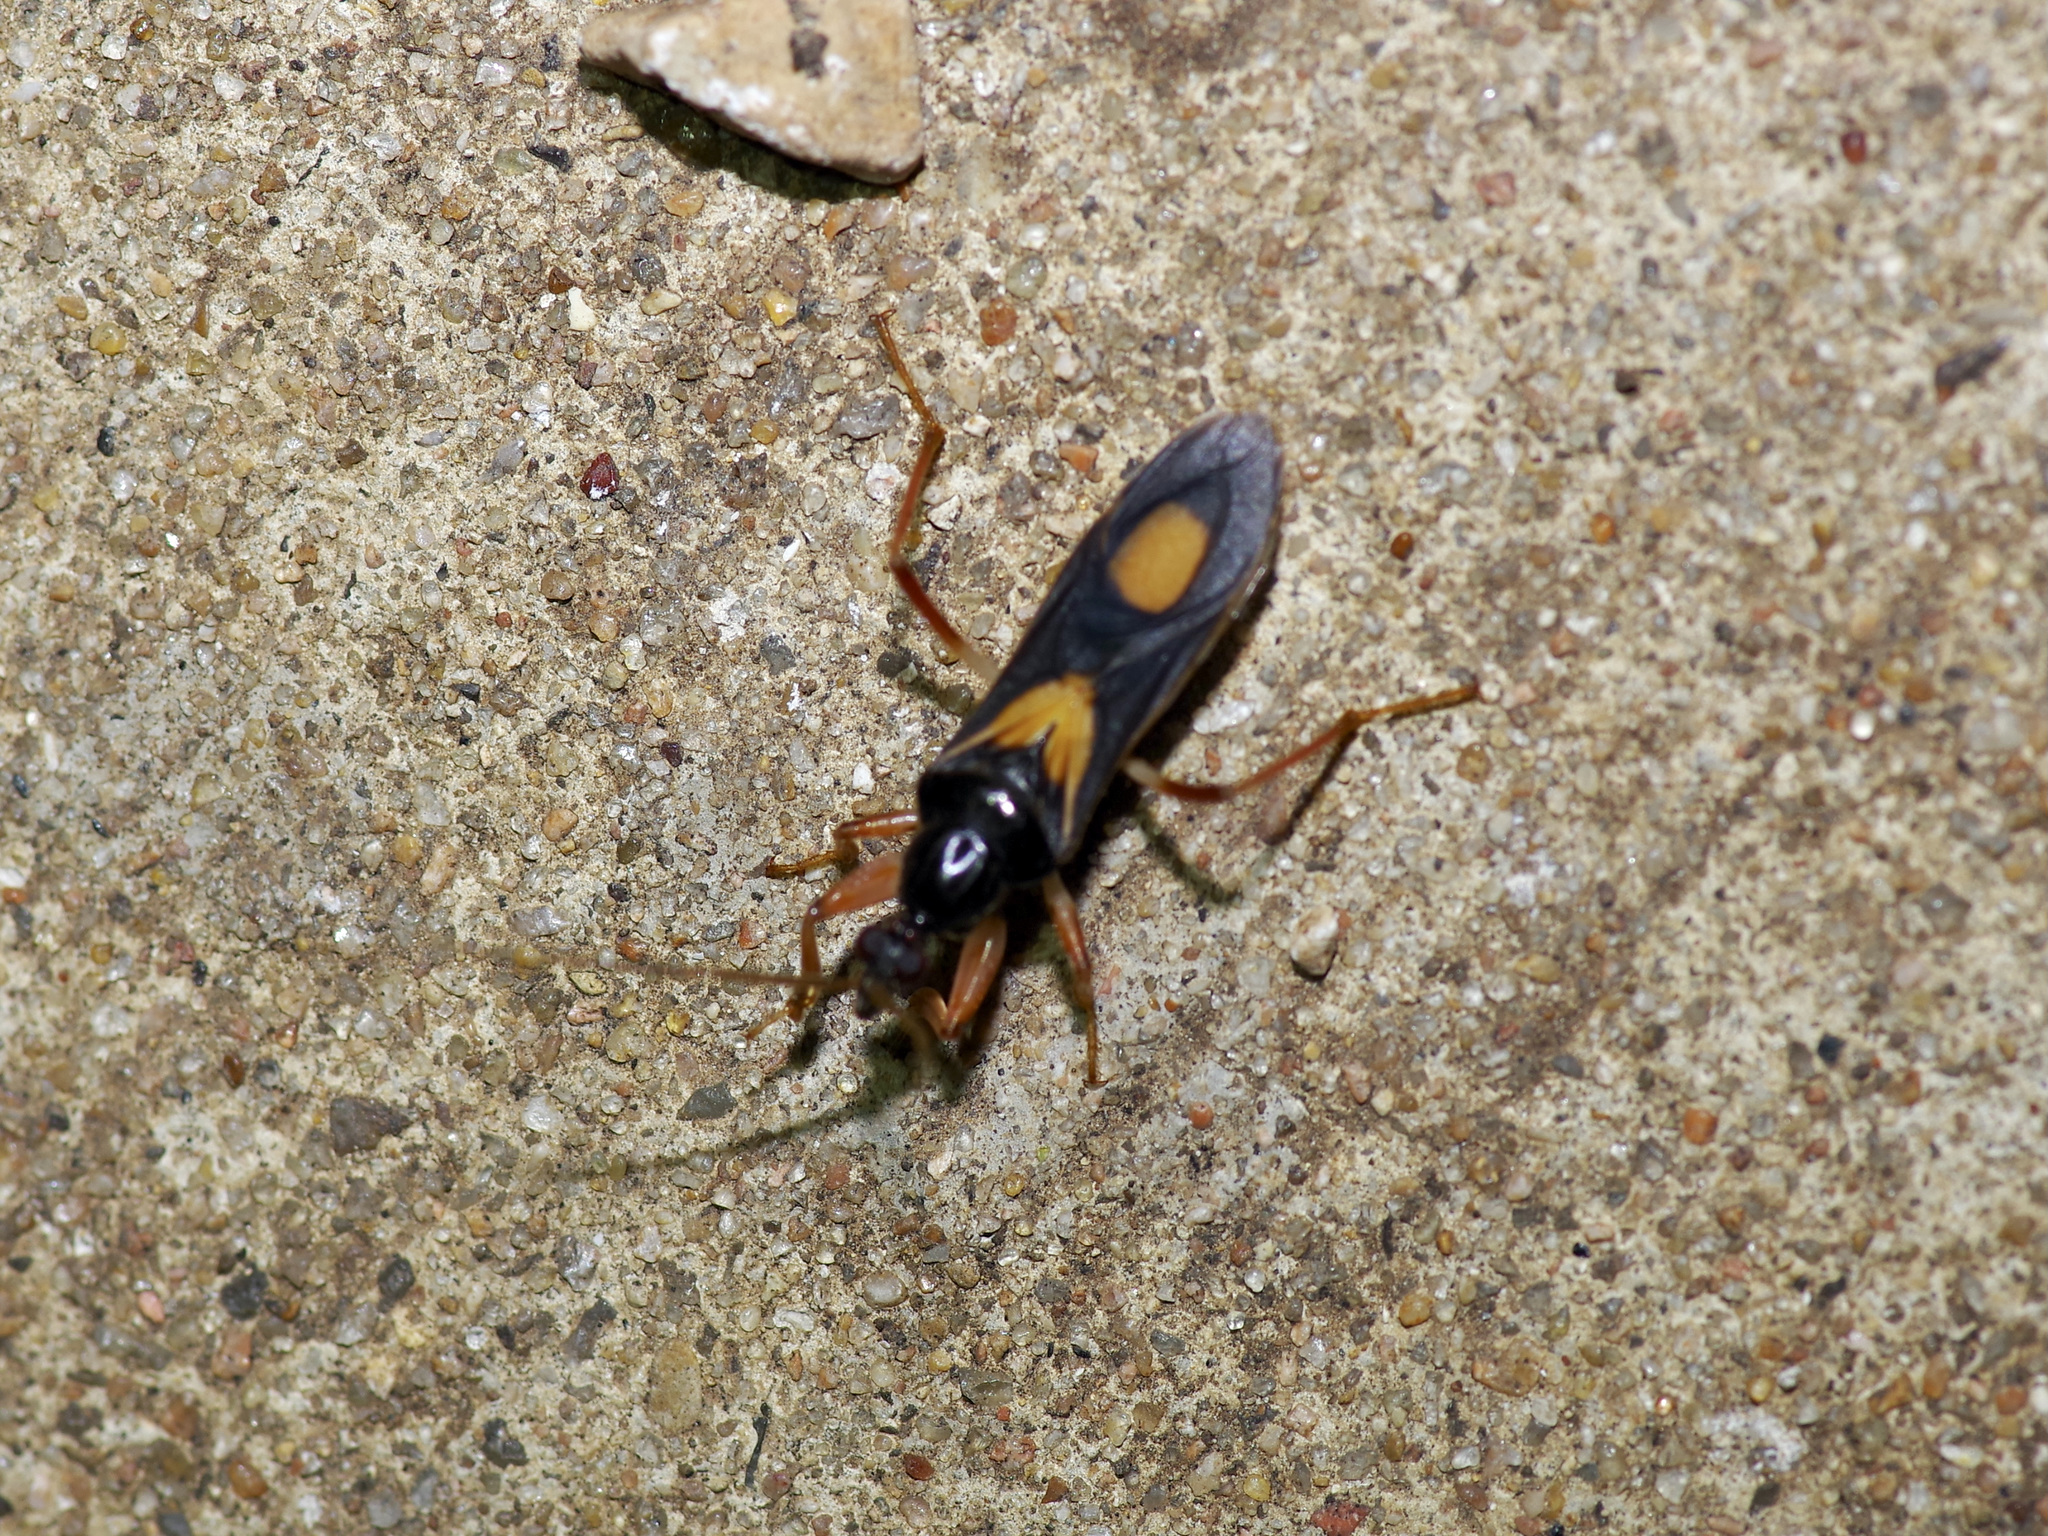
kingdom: Animalia
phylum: Arthropoda
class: Insecta
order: Hemiptera
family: Reduviidae
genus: Rasahus
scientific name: Rasahus hamatus
